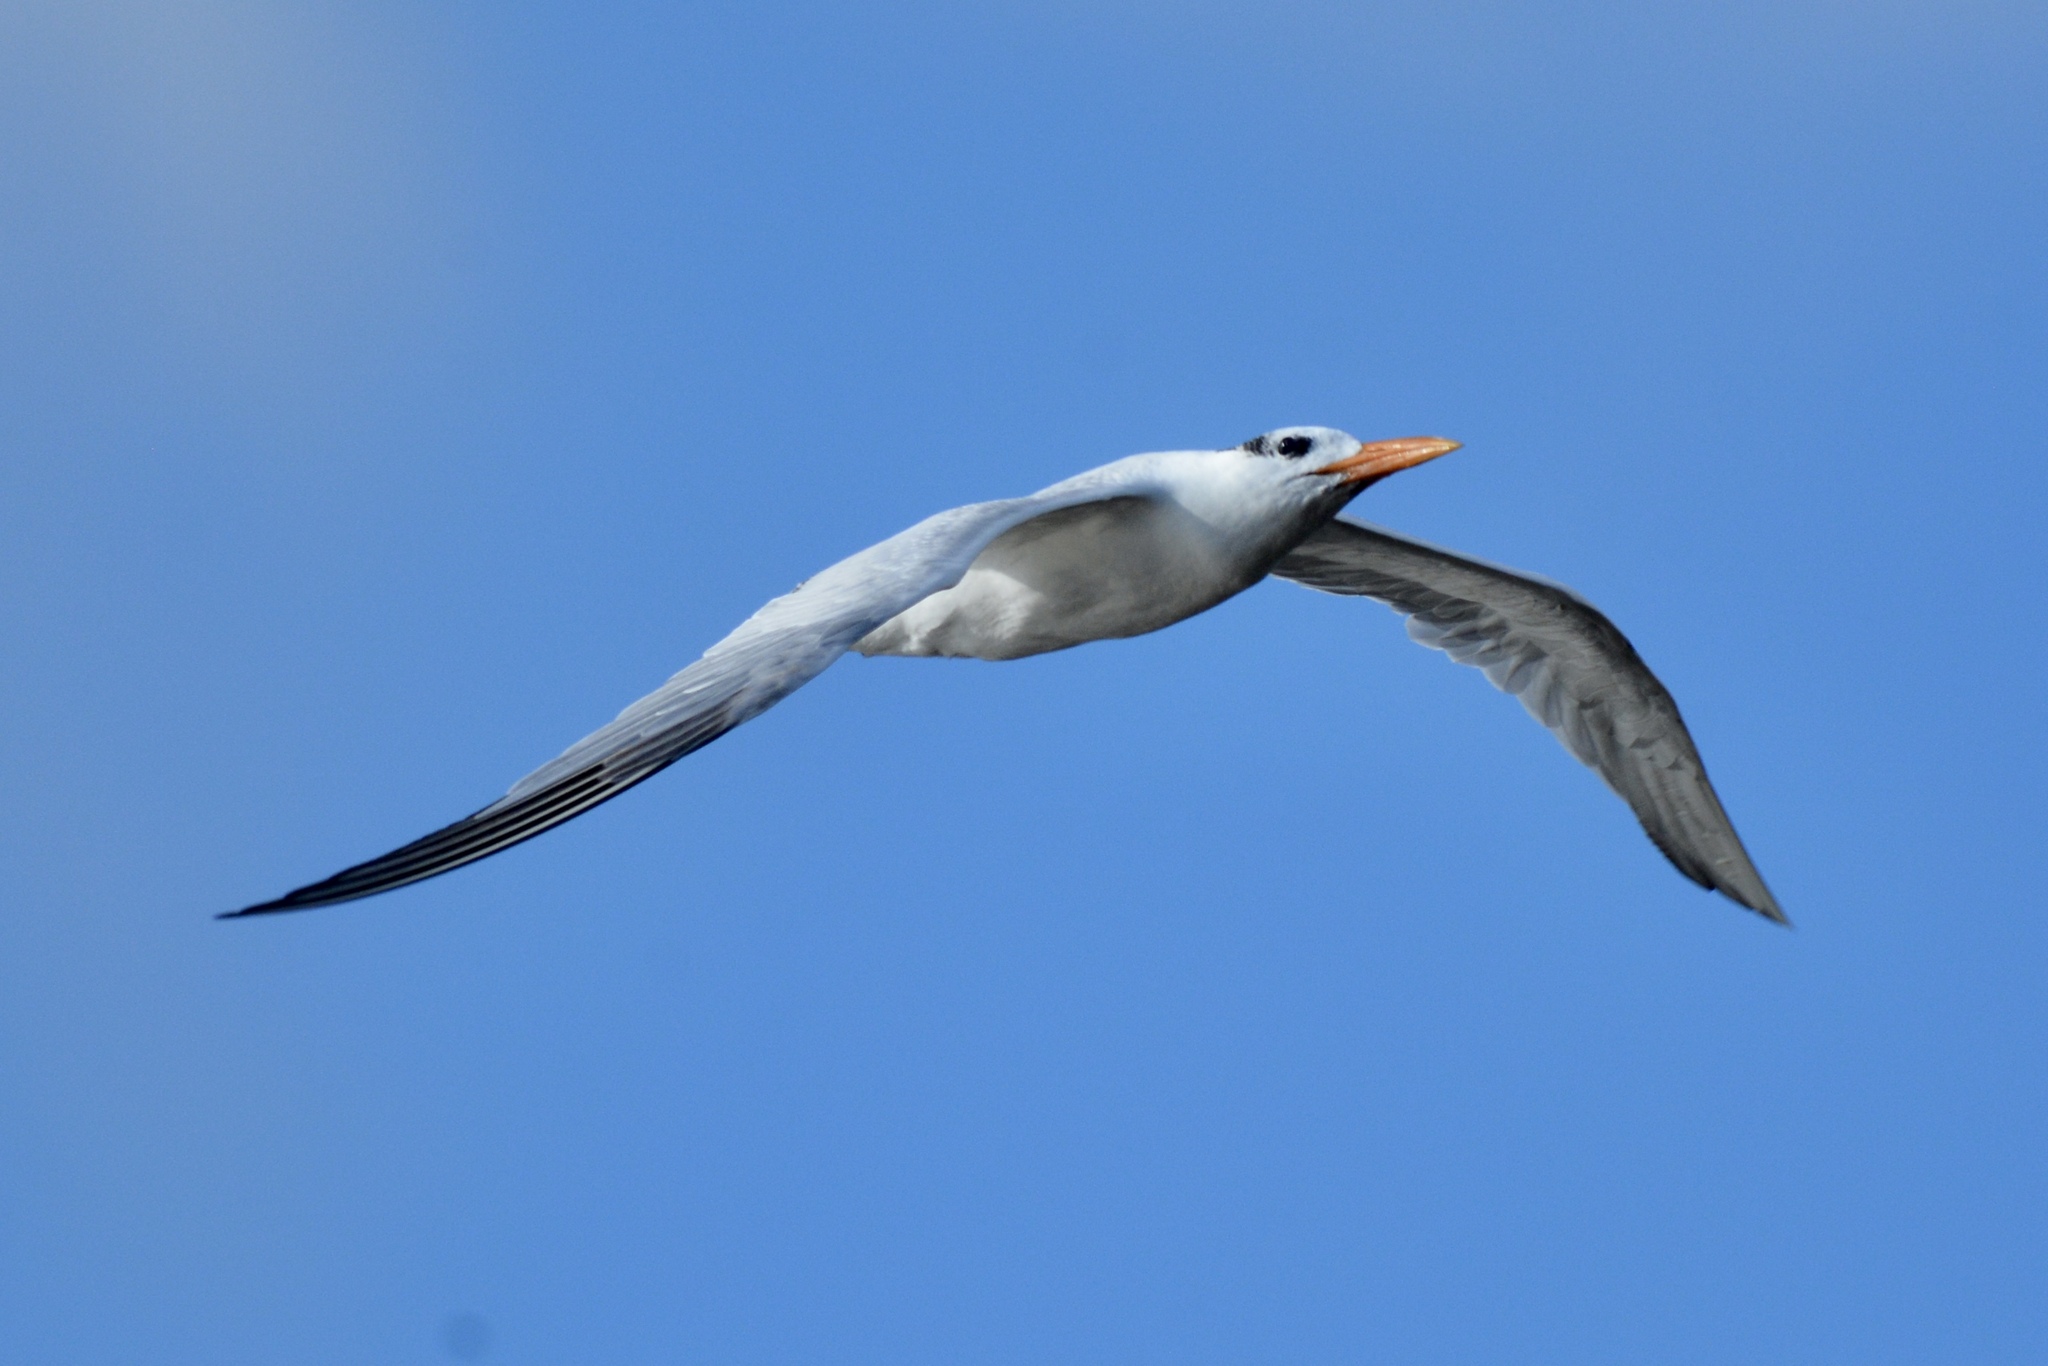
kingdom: Animalia
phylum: Chordata
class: Aves
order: Charadriiformes
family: Laridae
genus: Thalasseus
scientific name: Thalasseus maximus
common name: Royal tern
